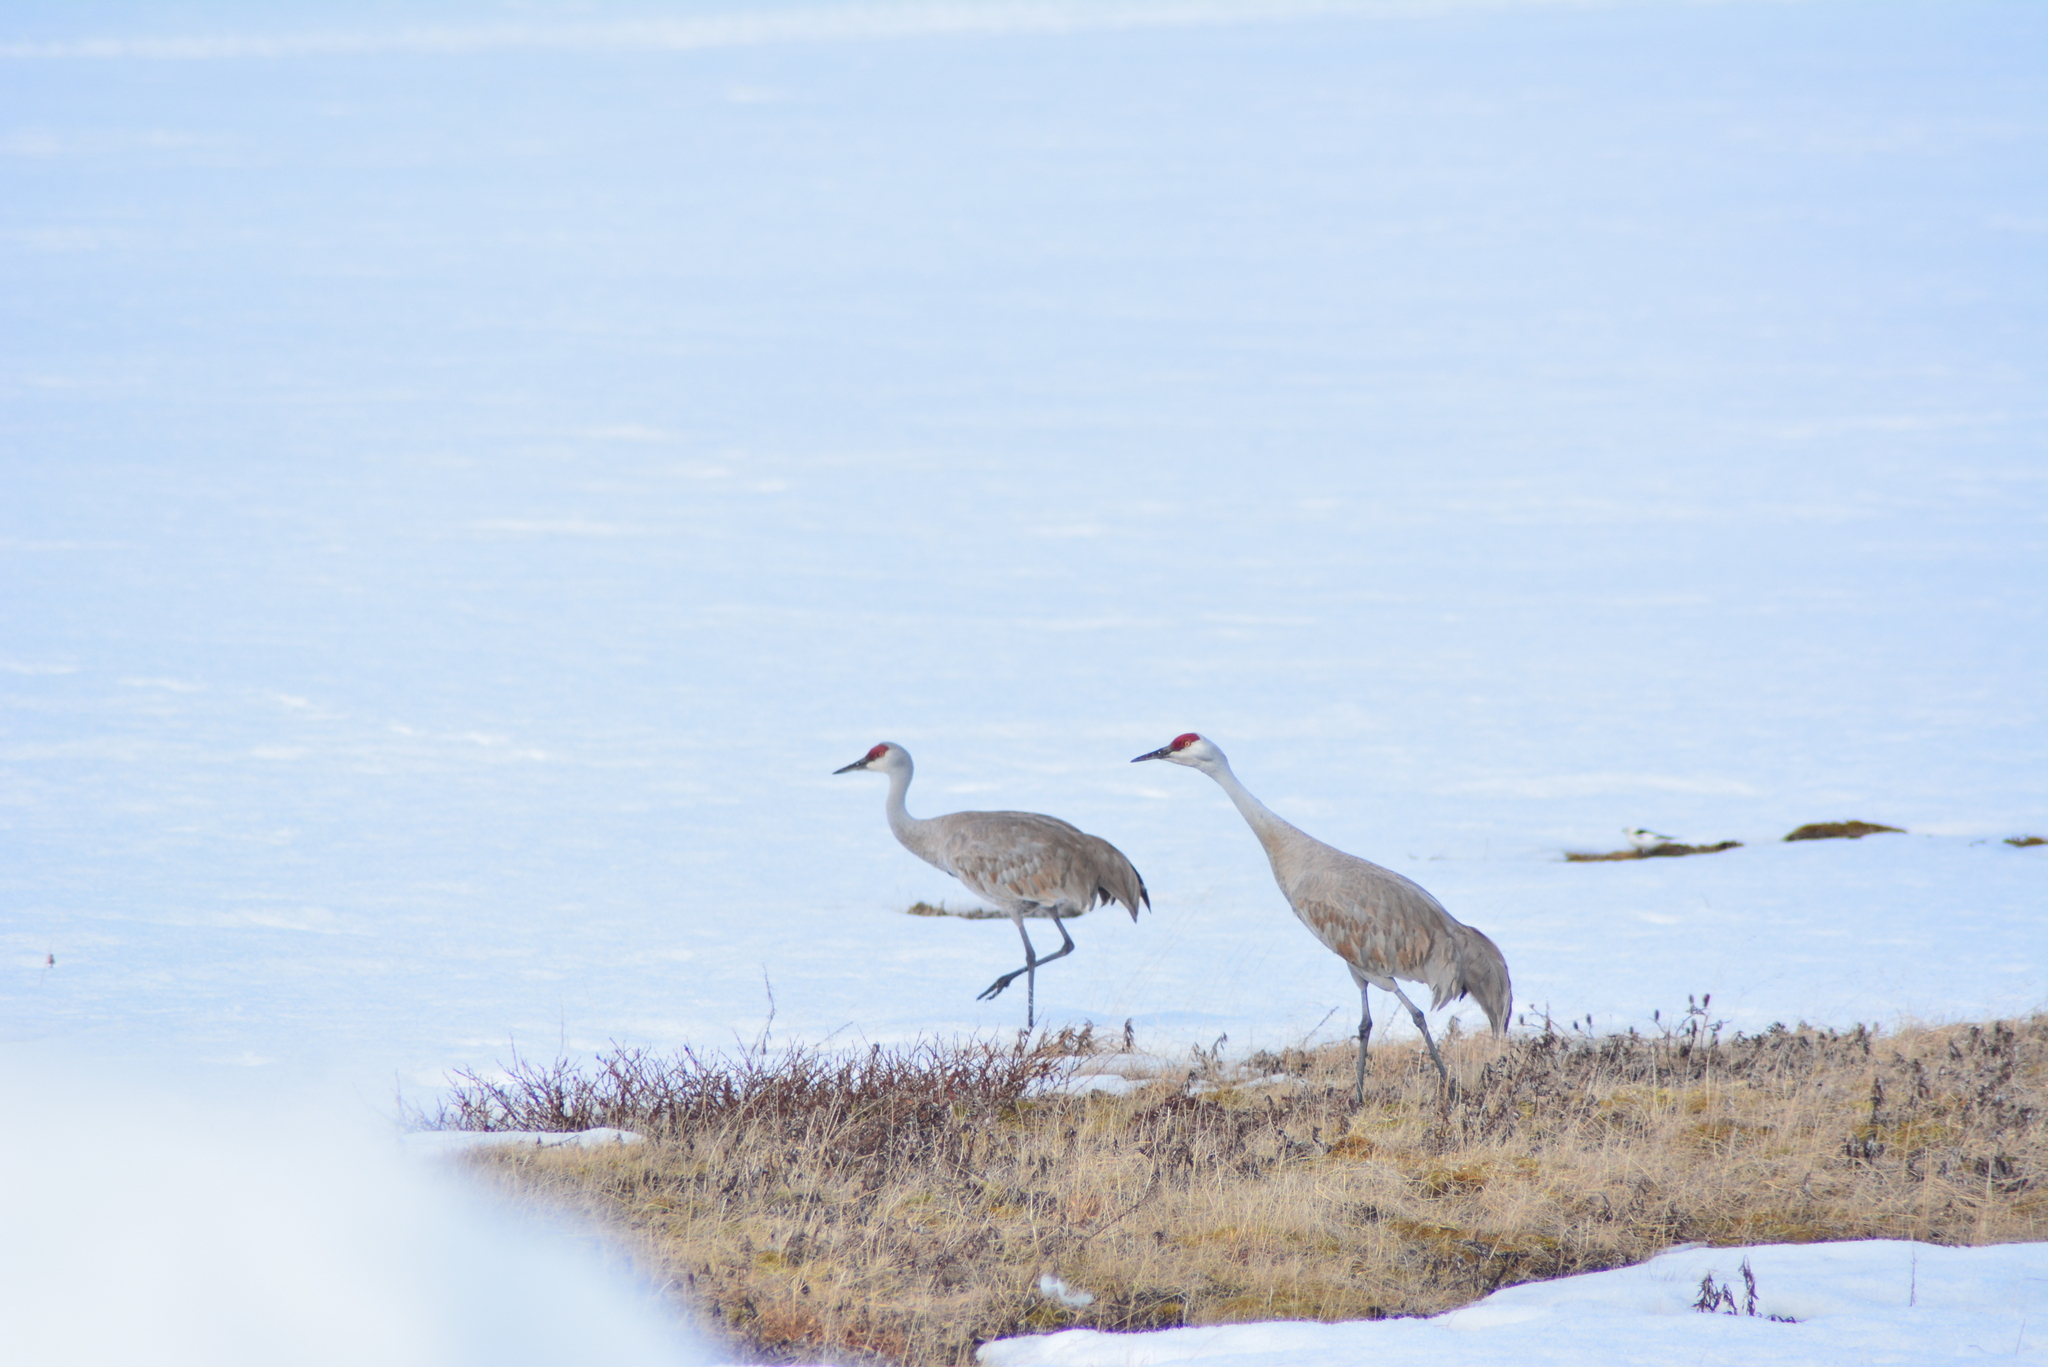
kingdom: Animalia
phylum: Chordata
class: Aves
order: Gruiformes
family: Gruidae
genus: Grus
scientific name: Grus canadensis
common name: Sandhill crane
